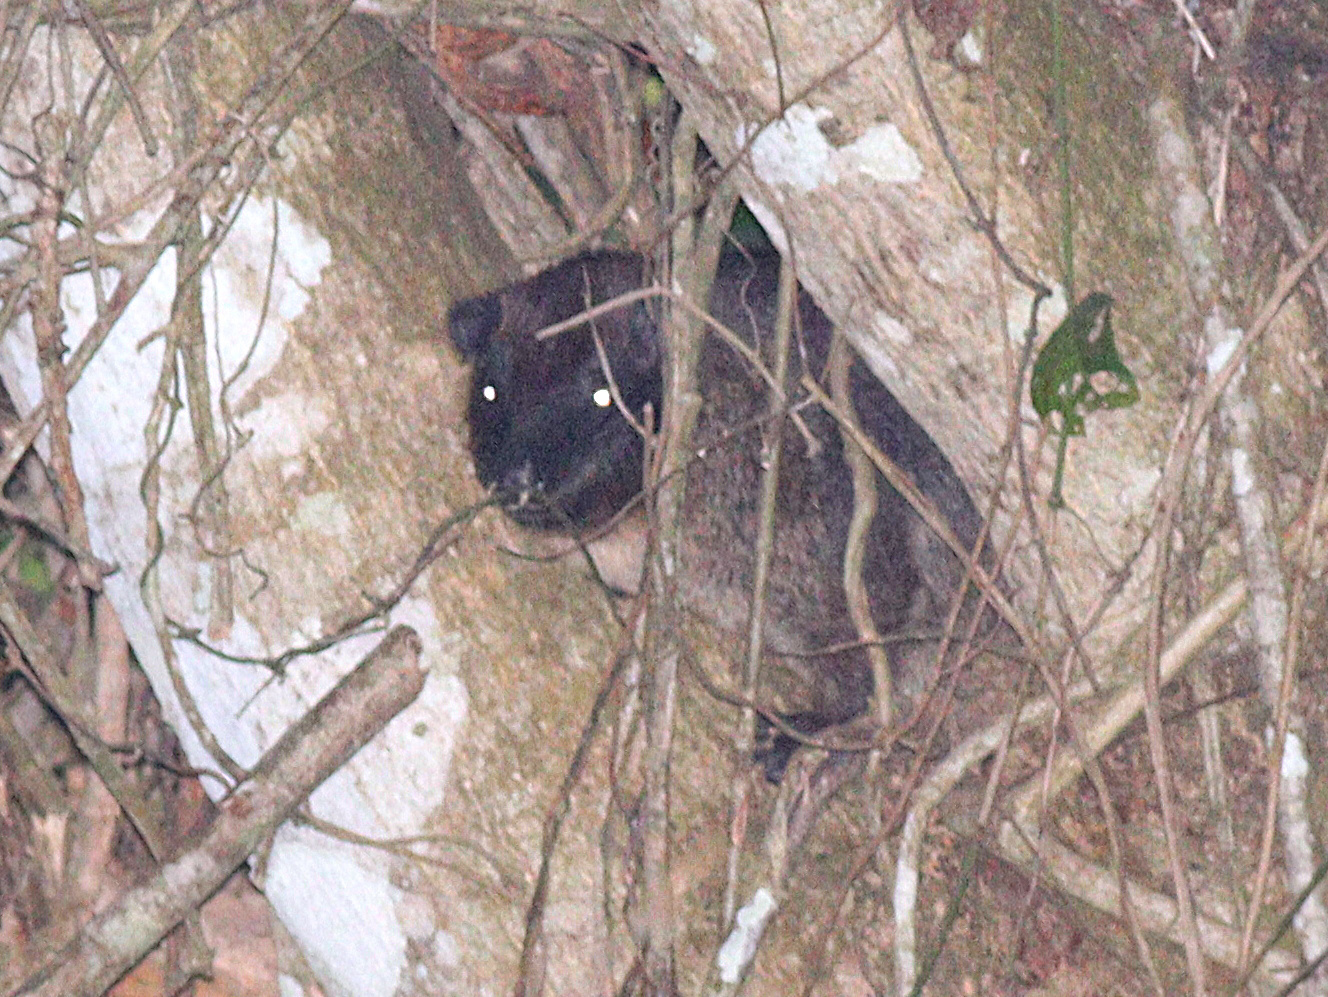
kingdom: Animalia
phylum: Chordata
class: Mammalia
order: Hyracoidea
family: Procaviidae
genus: Dendrohyrax
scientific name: Dendrohyrax interfluvialis
